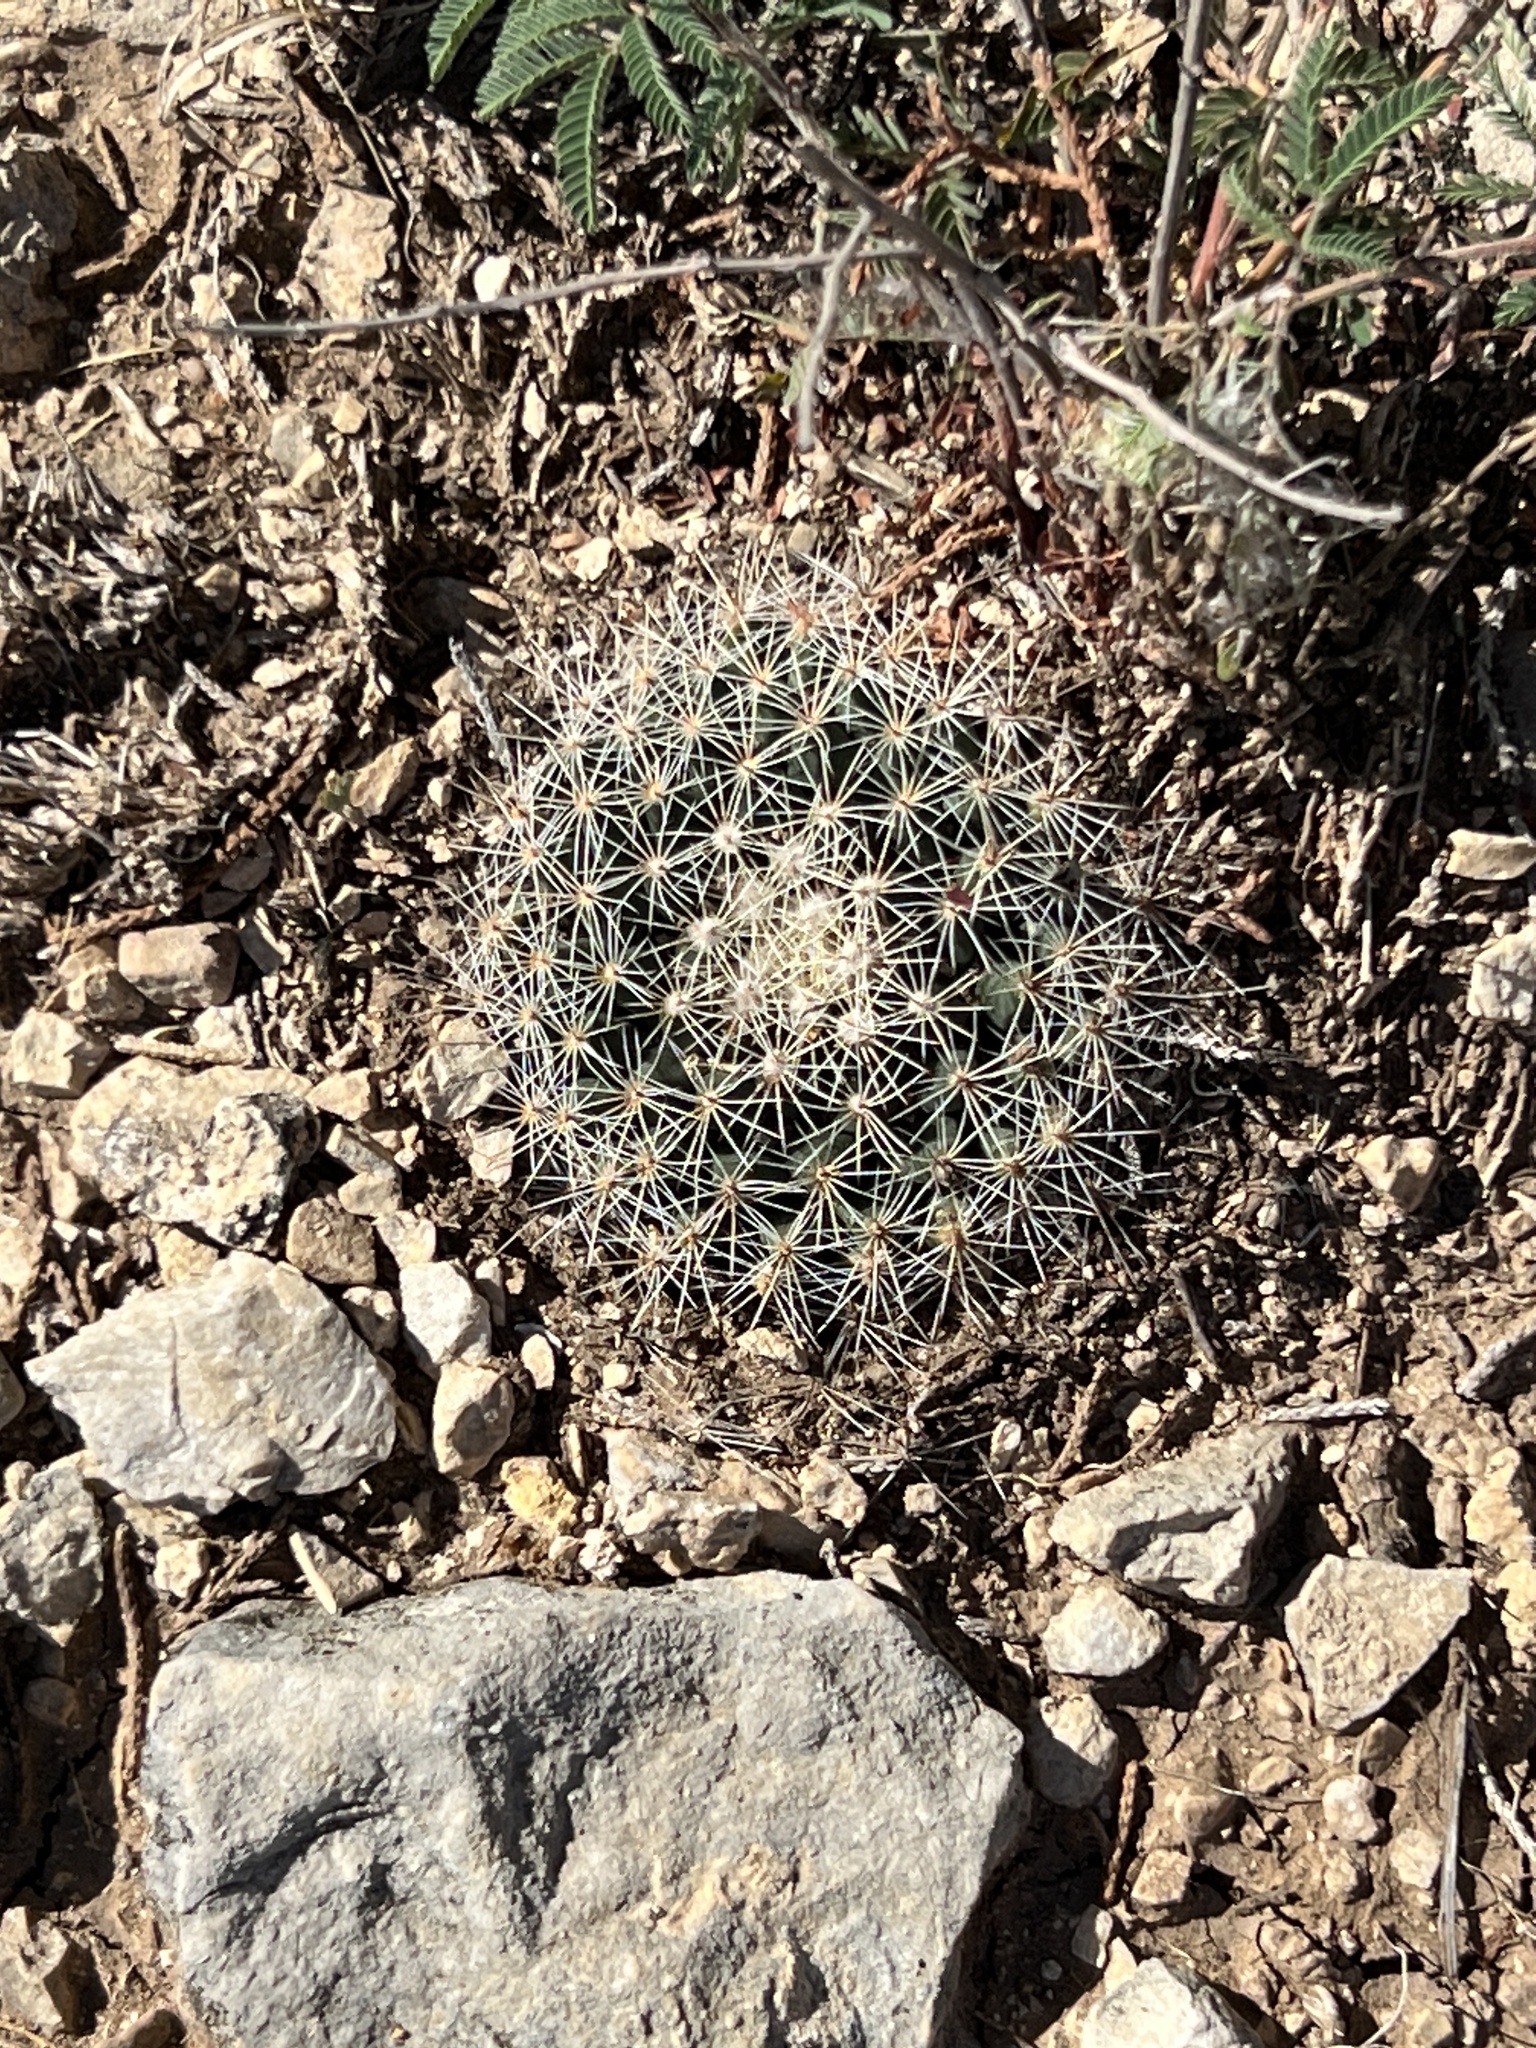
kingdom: Plantae
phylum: Tracheophyta
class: Magnoliopsida
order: Caryophyllales
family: Cactaceae
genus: Mammillaria
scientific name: Mammillaria heyderi
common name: Little nipple cactus
